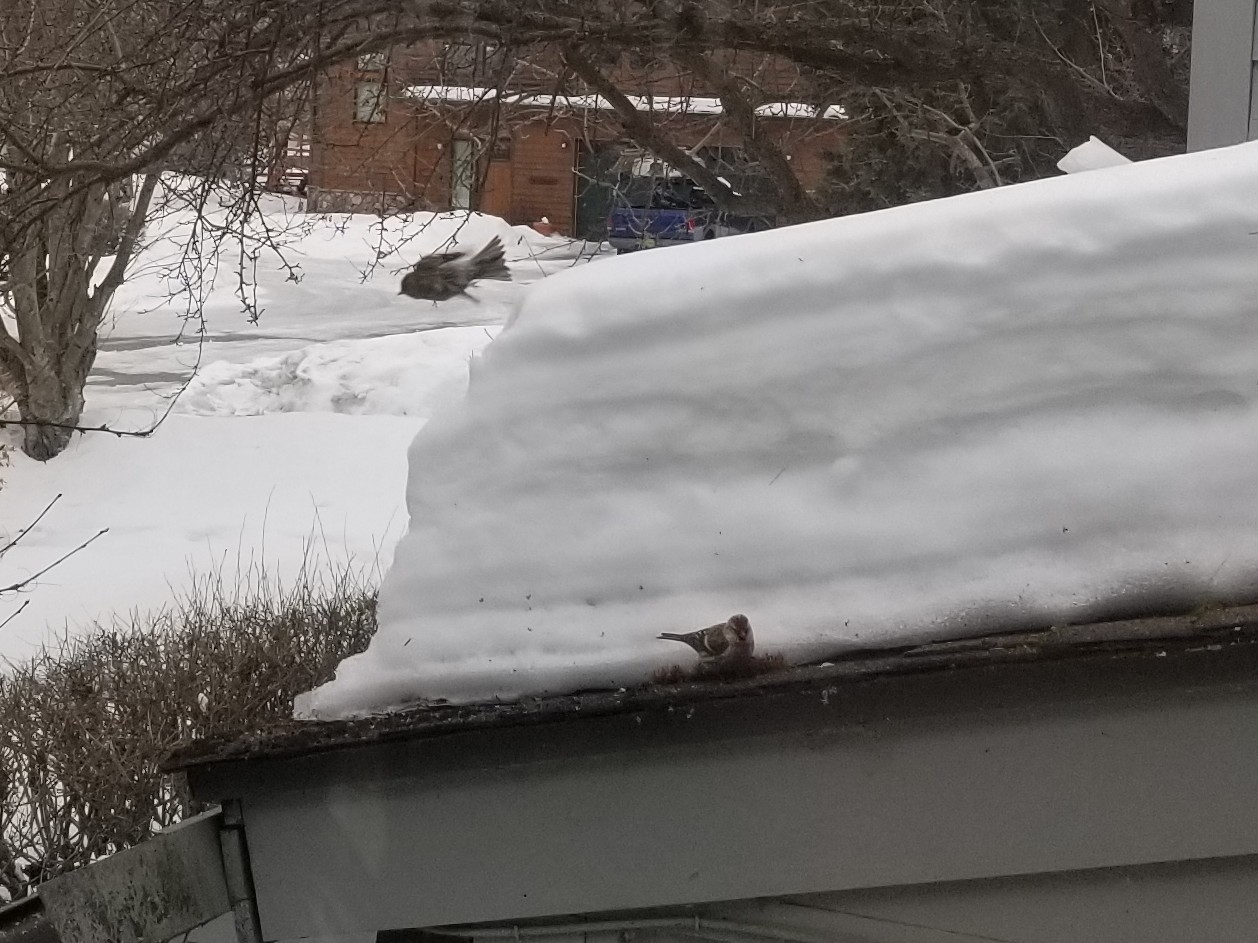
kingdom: Animalia
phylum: Chordata
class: Aves
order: Passeriformes
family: Fringillidae
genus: Acanthis
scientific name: Acanthis flammea
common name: Common redpoll
